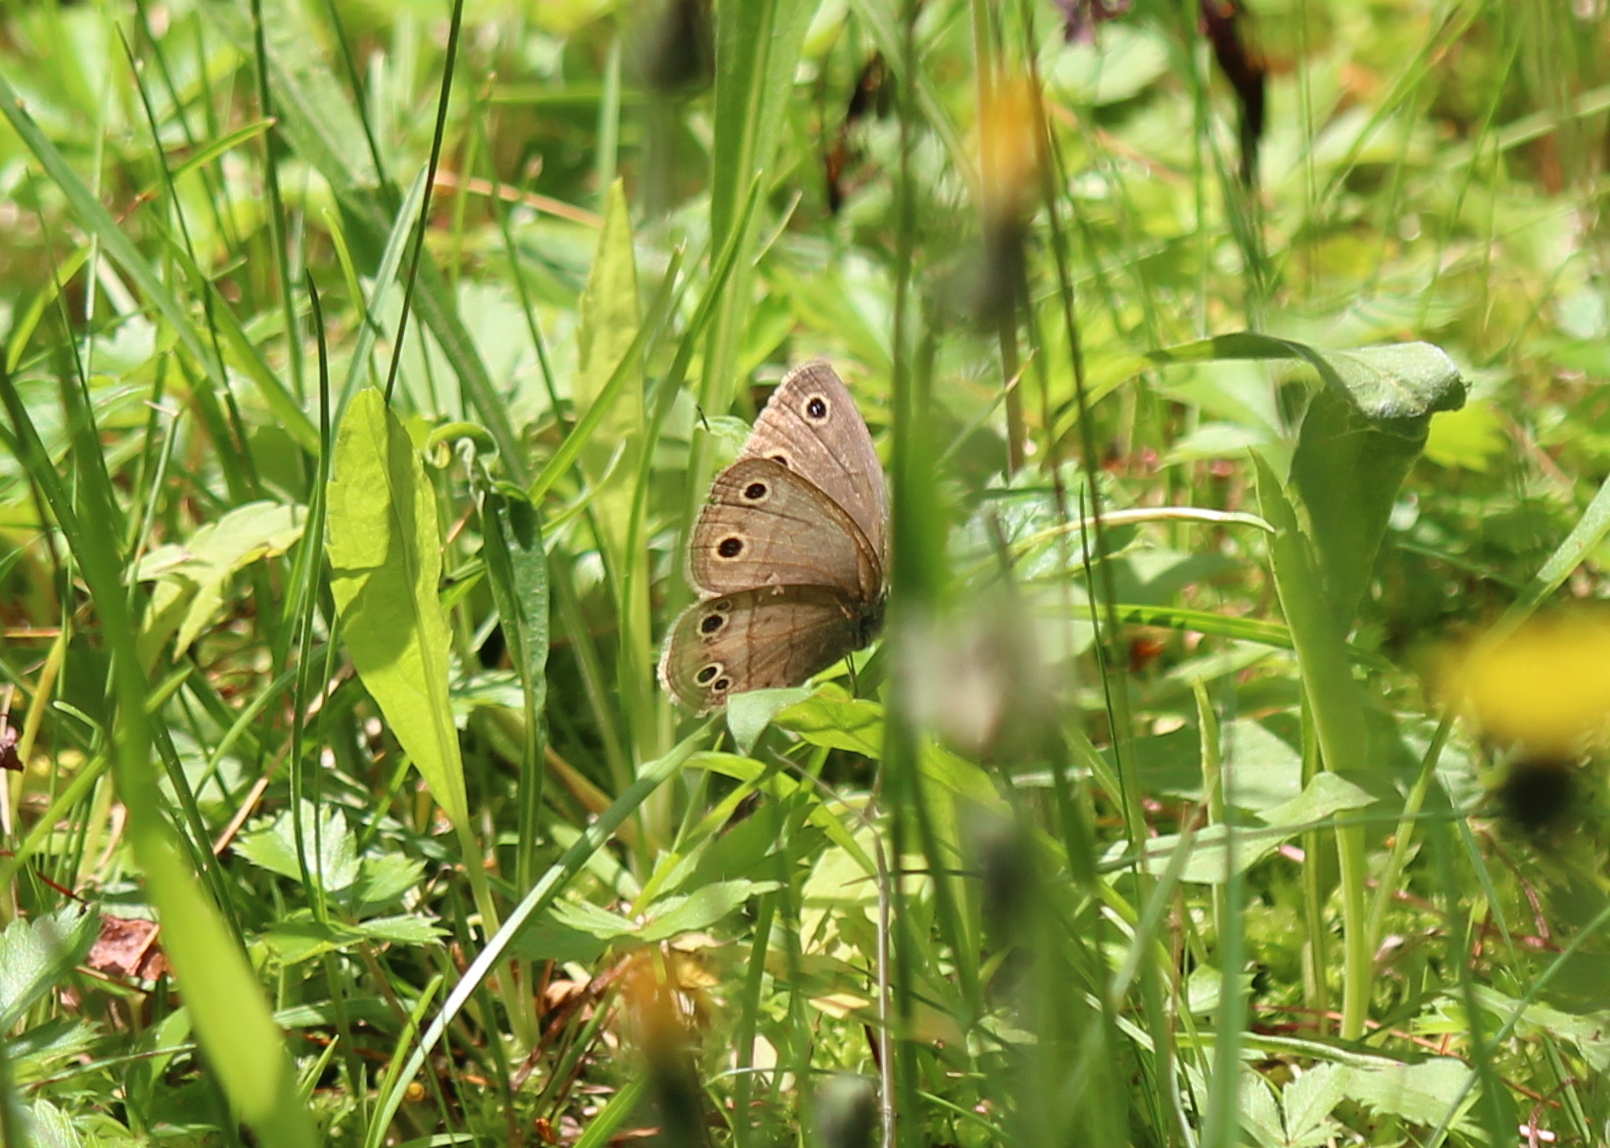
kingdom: Animalia
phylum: Arthropoda
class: Insecta
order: Lepidoptera
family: Nymphalidae
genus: Euptychia
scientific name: Euptychia cymela
